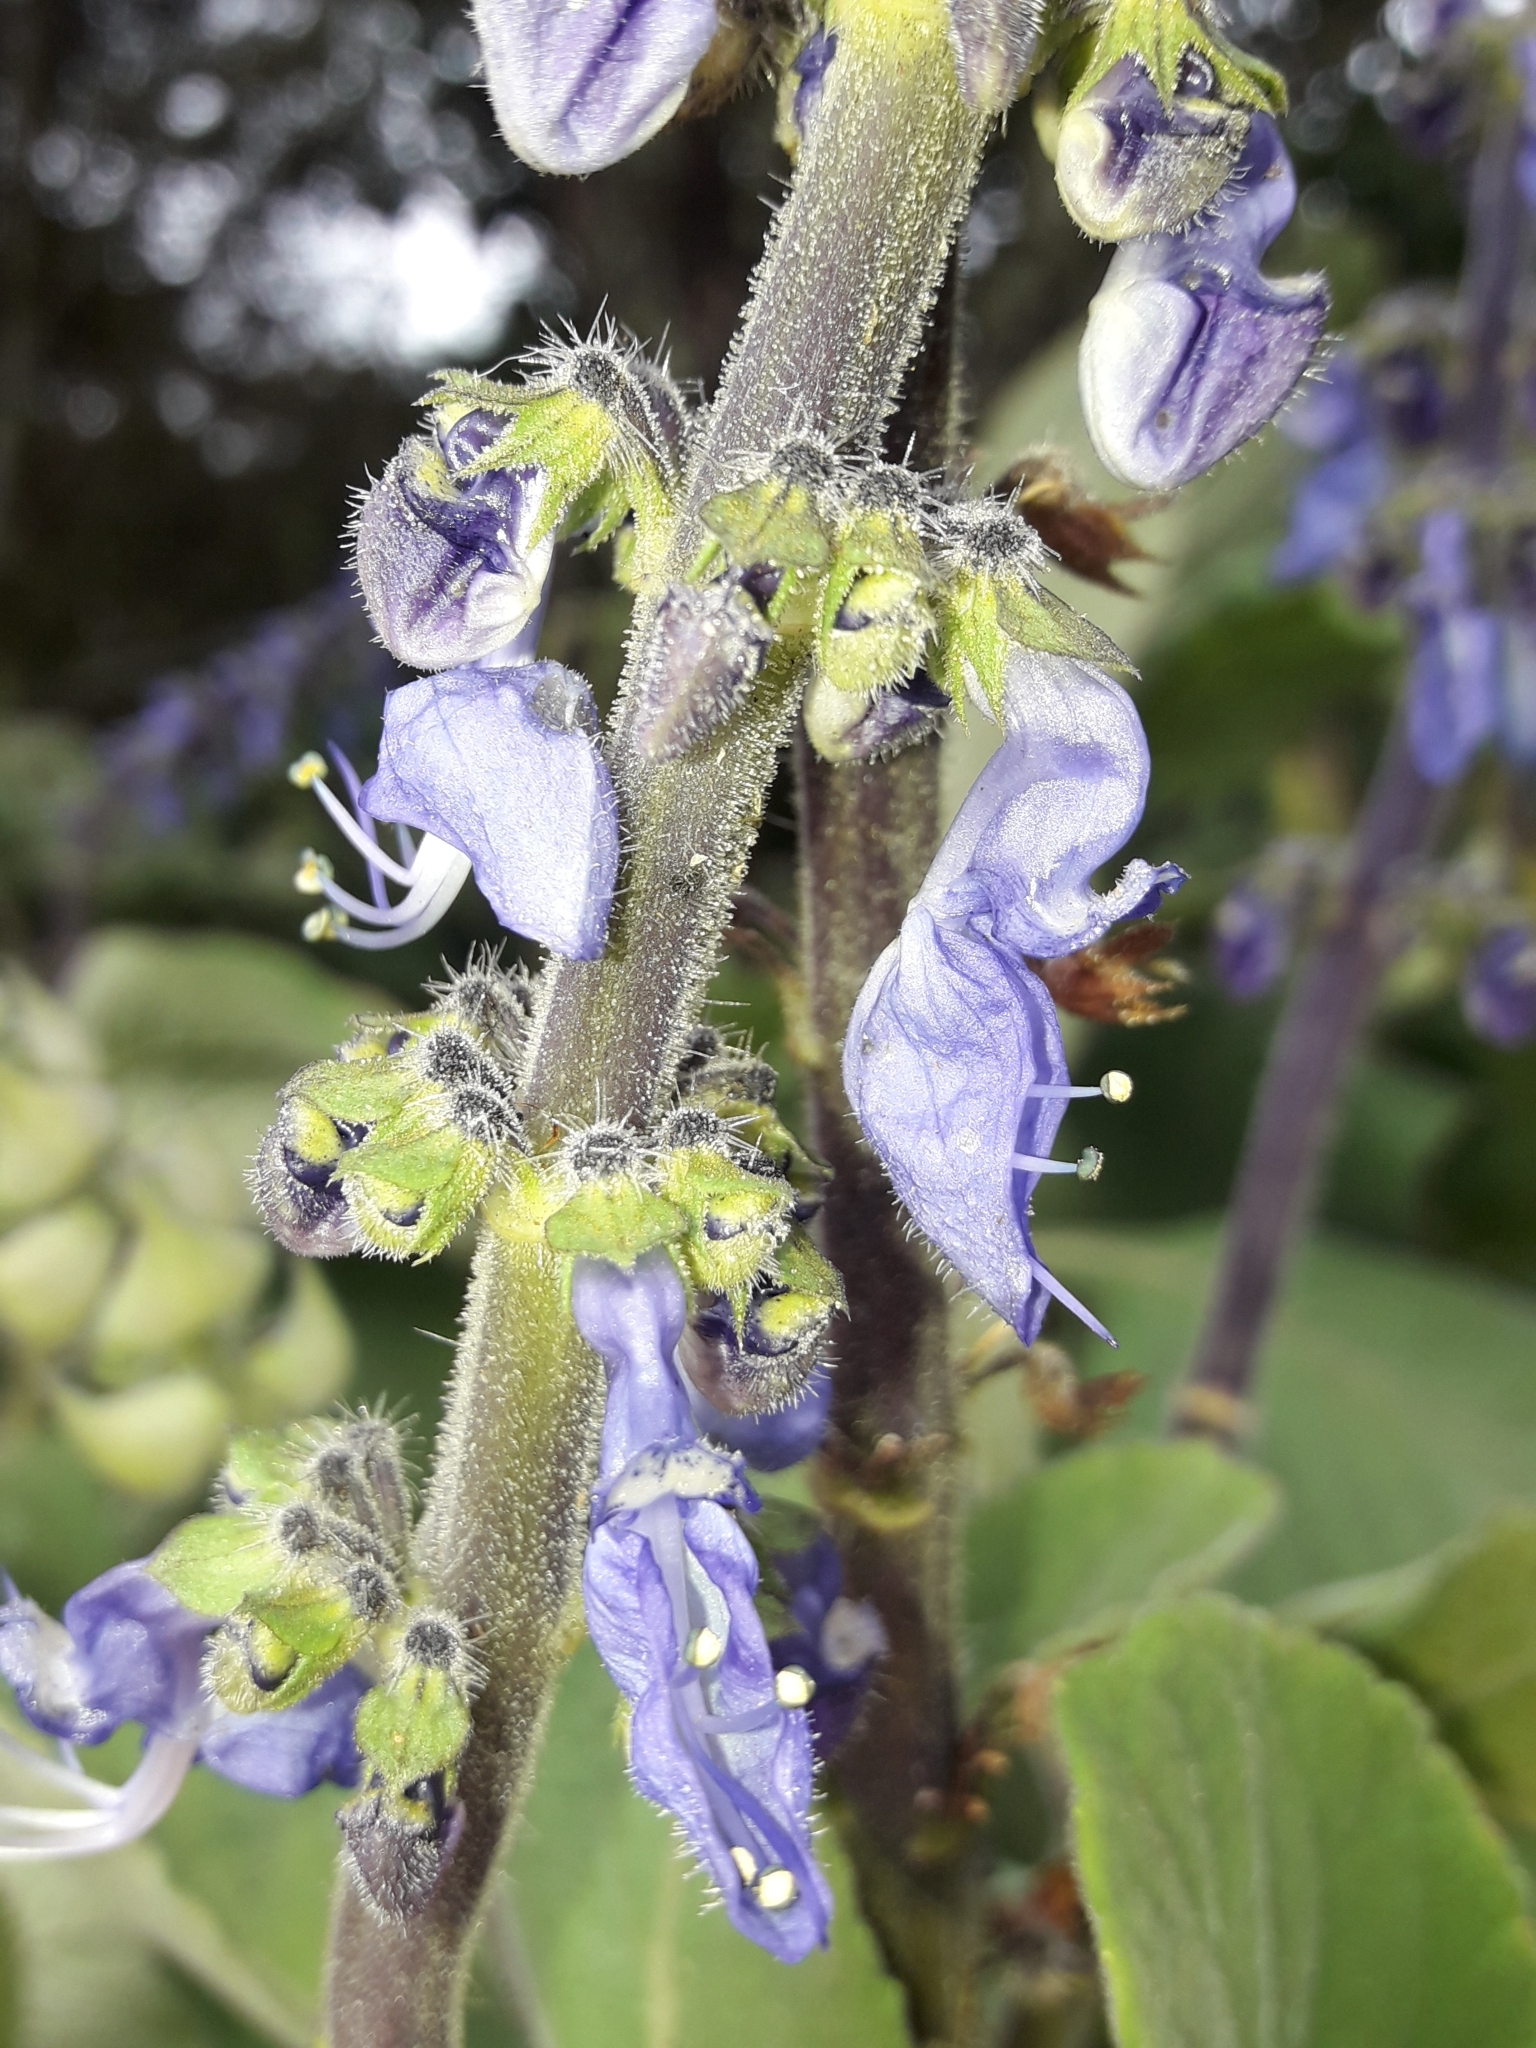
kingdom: Plantae
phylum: Tracheophyta
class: Magnoliopsida
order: Lamiales
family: Lamiaceae
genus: Coleus
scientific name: Coleus barbatus
